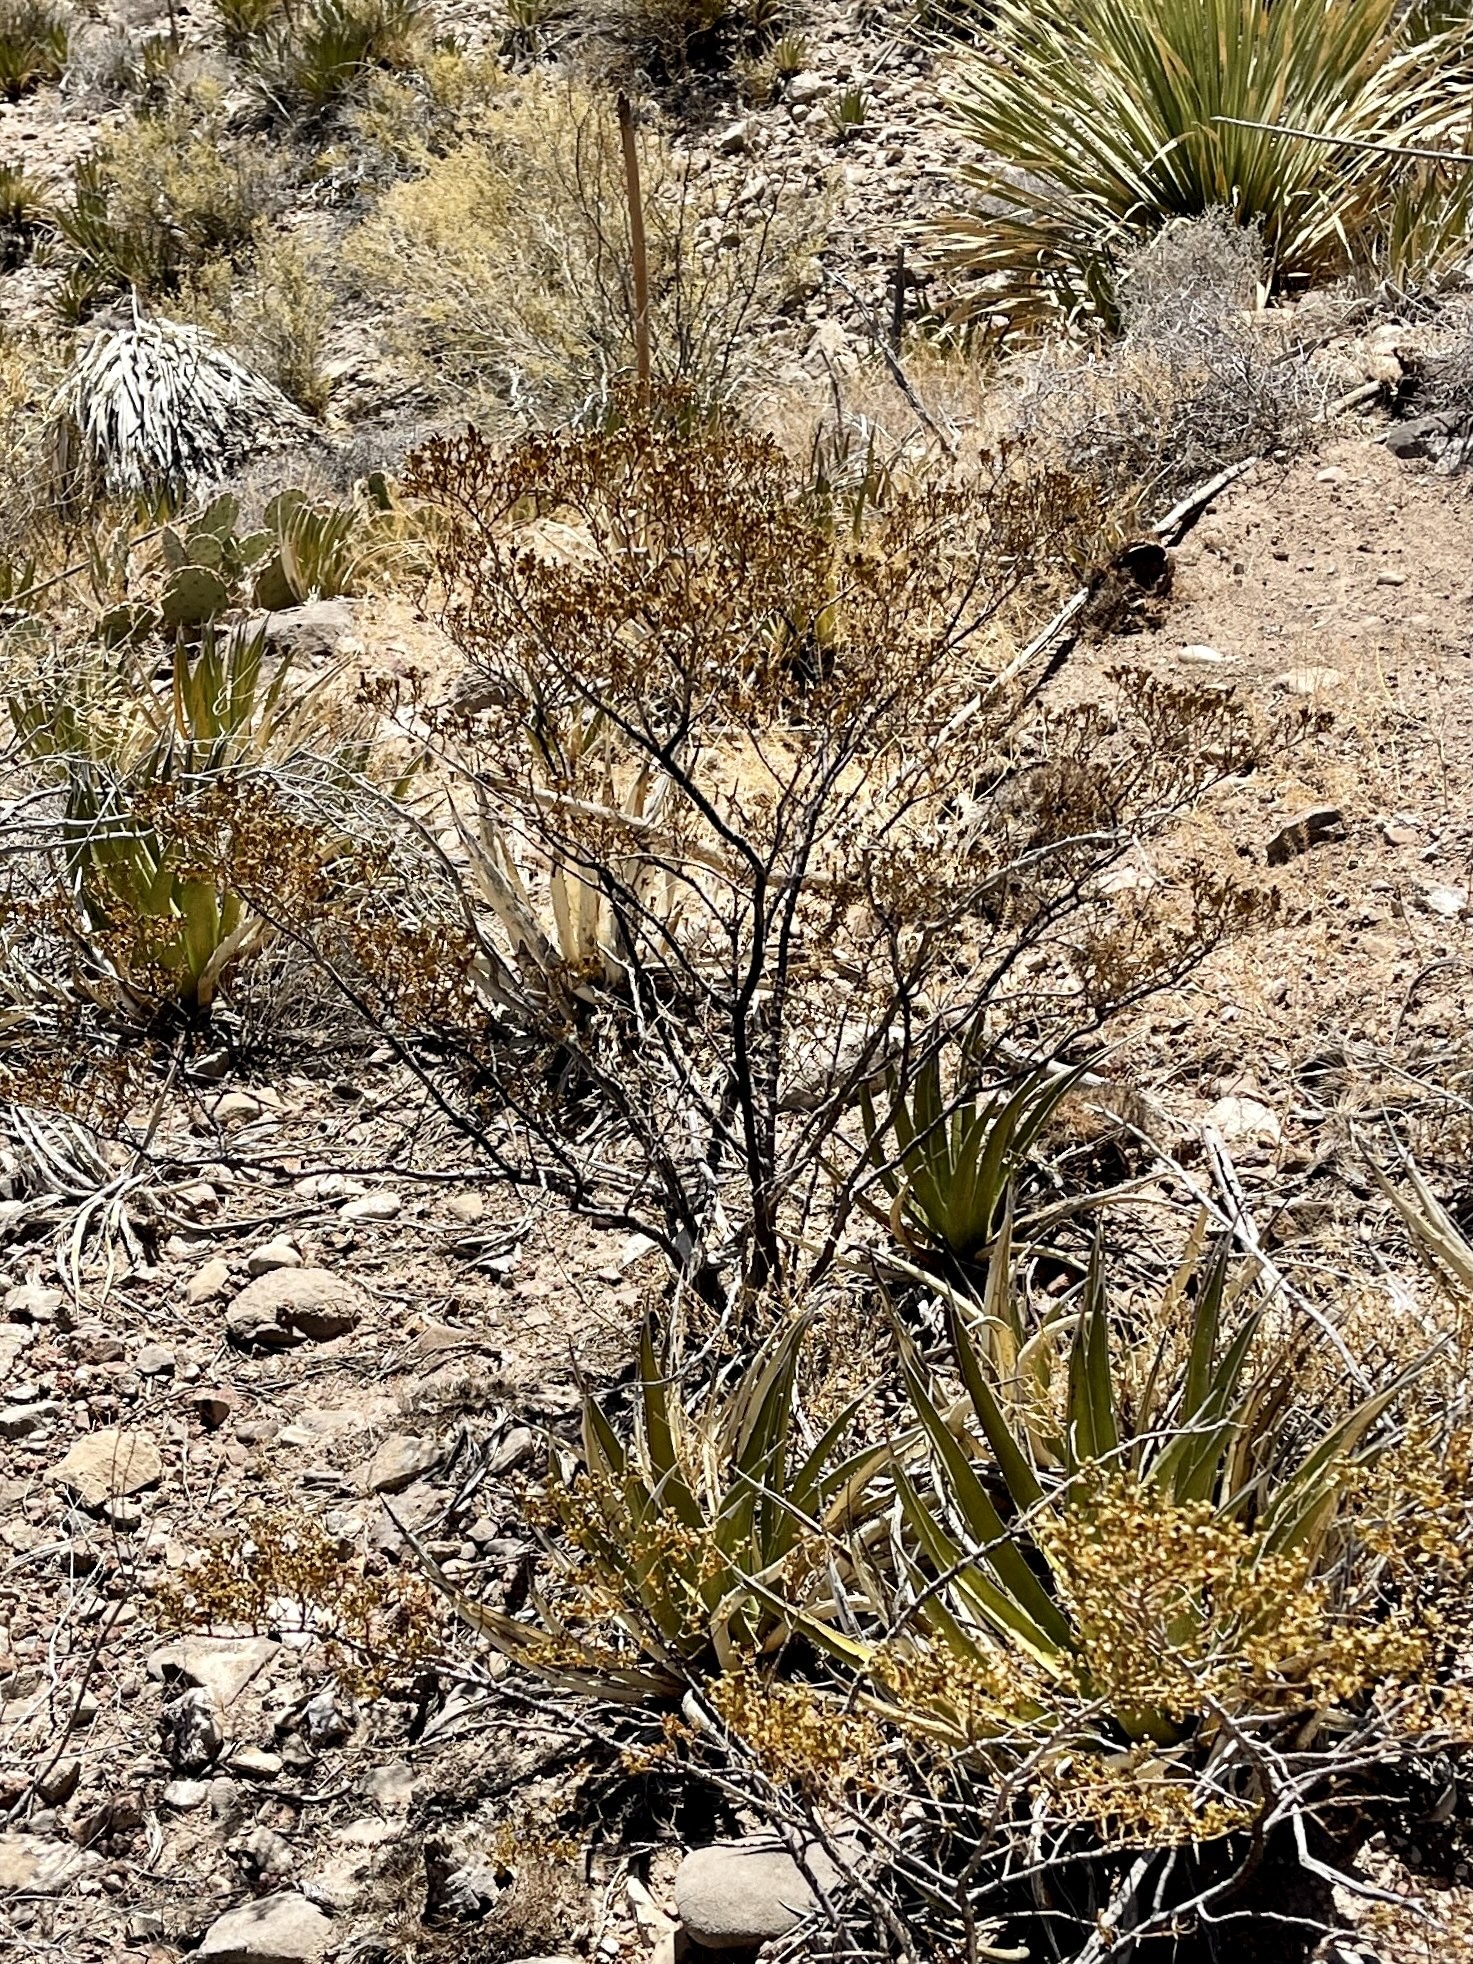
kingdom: Plantae
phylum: Tracheophyta
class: Magnoliopsida
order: Zygophyllales
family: Zygophyllaceae
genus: Larrea
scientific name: Larrea tridentata
